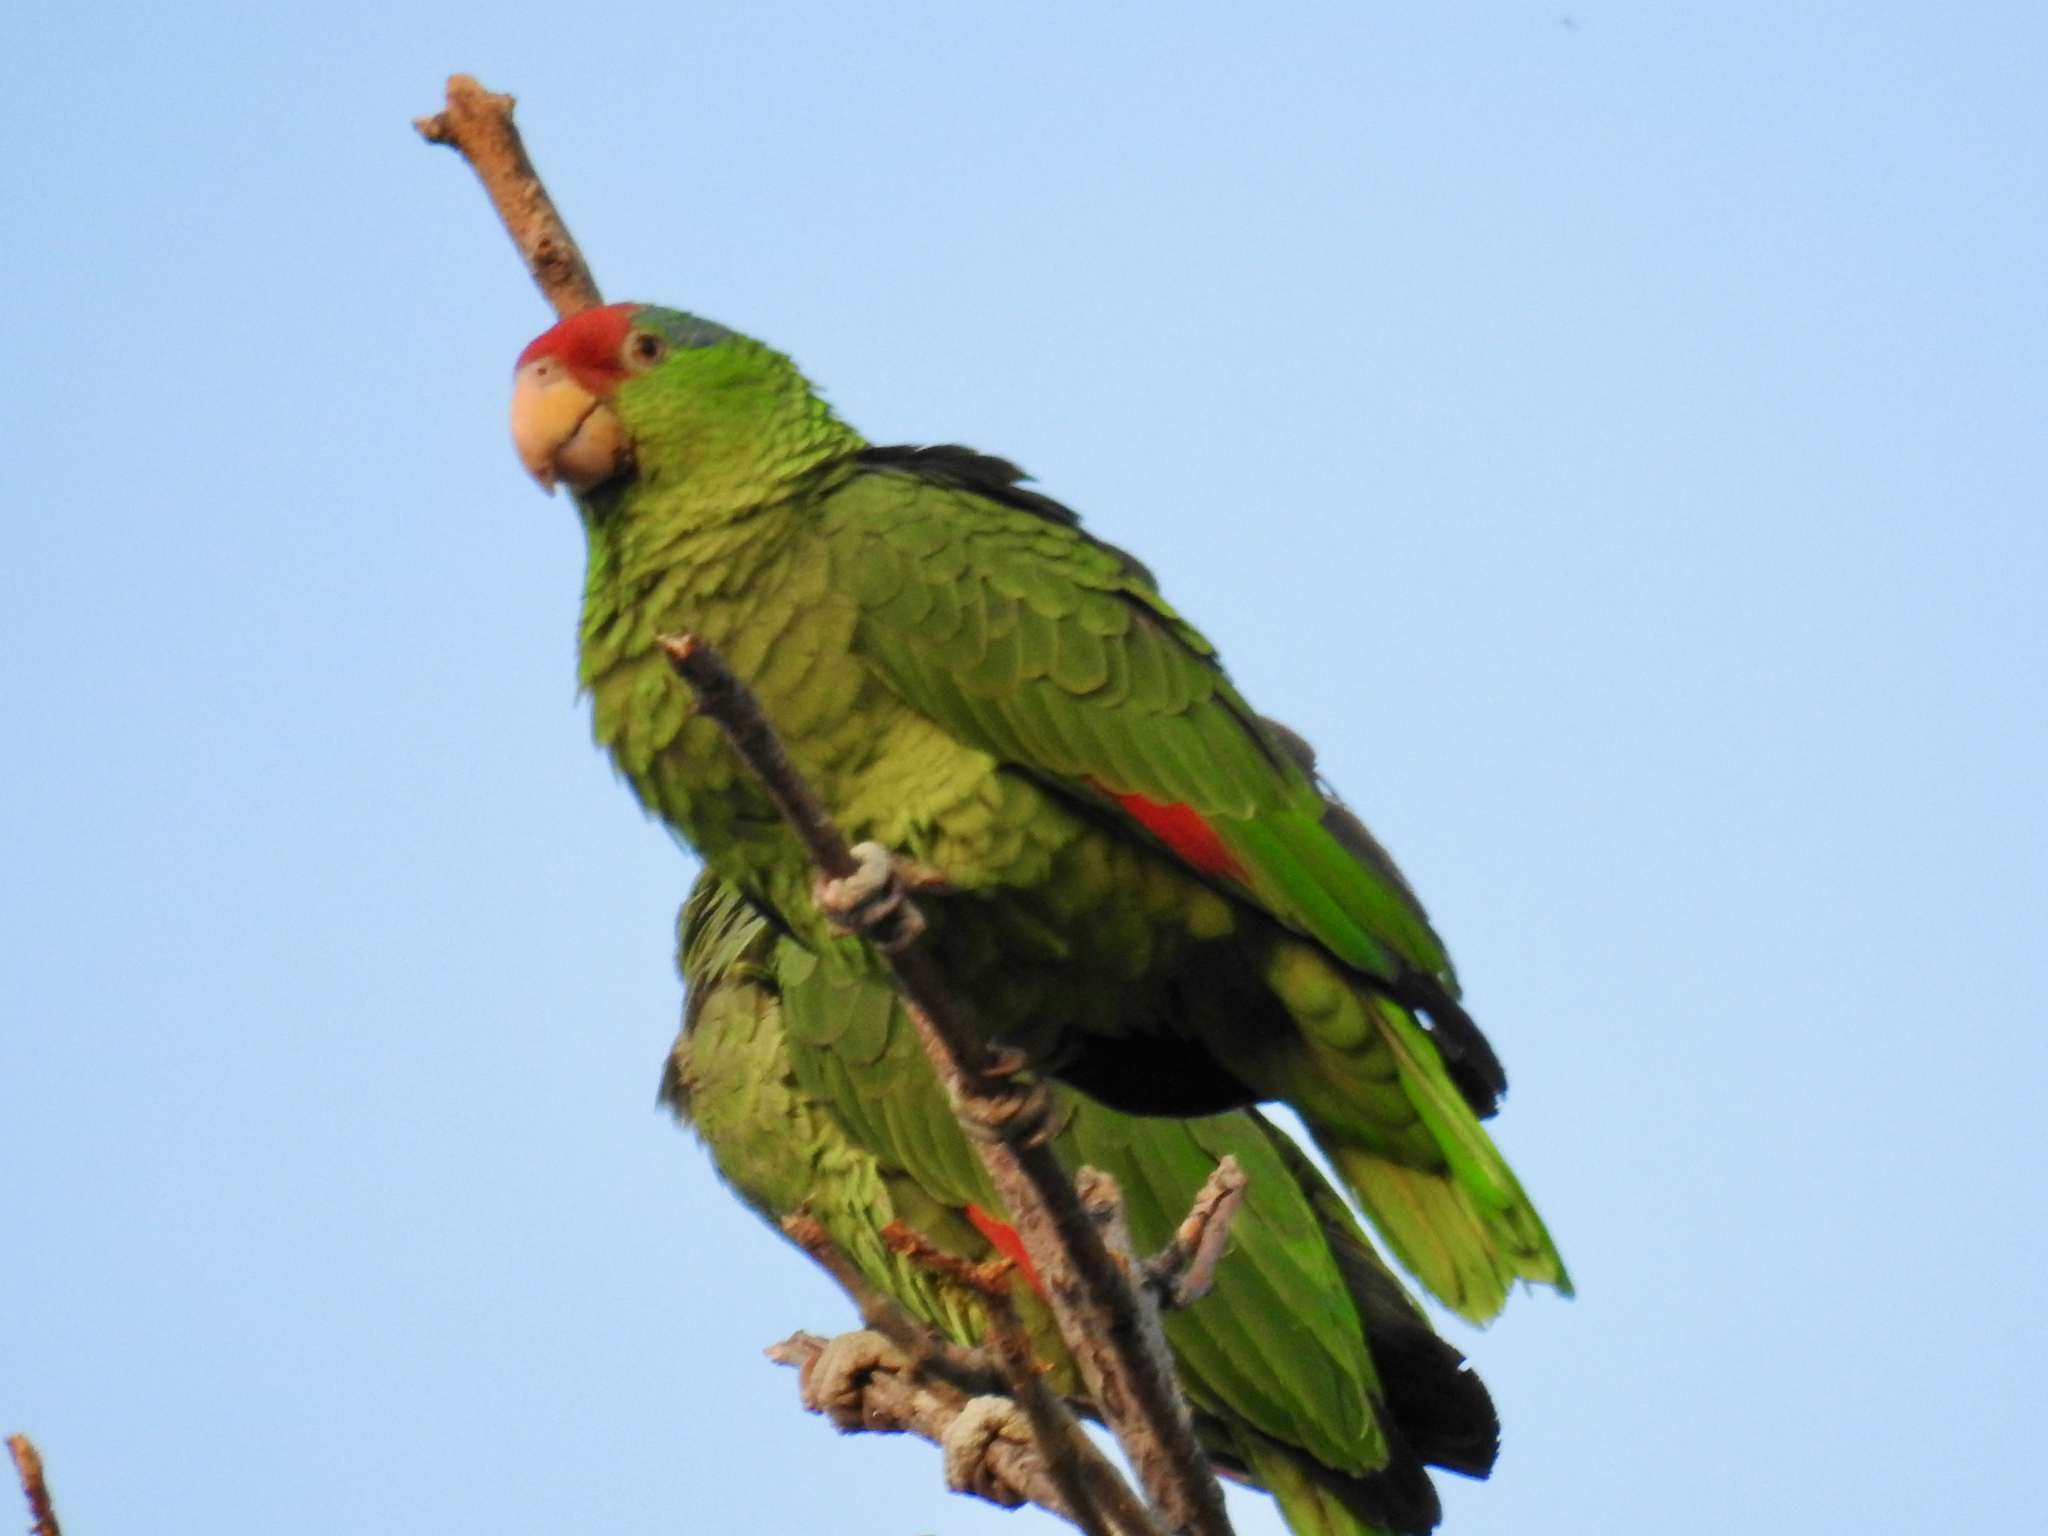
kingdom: Animalia
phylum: Chordata
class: Aves
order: Psittaciformes
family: Psittacidae
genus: Amazona
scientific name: Amazona viridigenalis
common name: Red-crowned amazon
